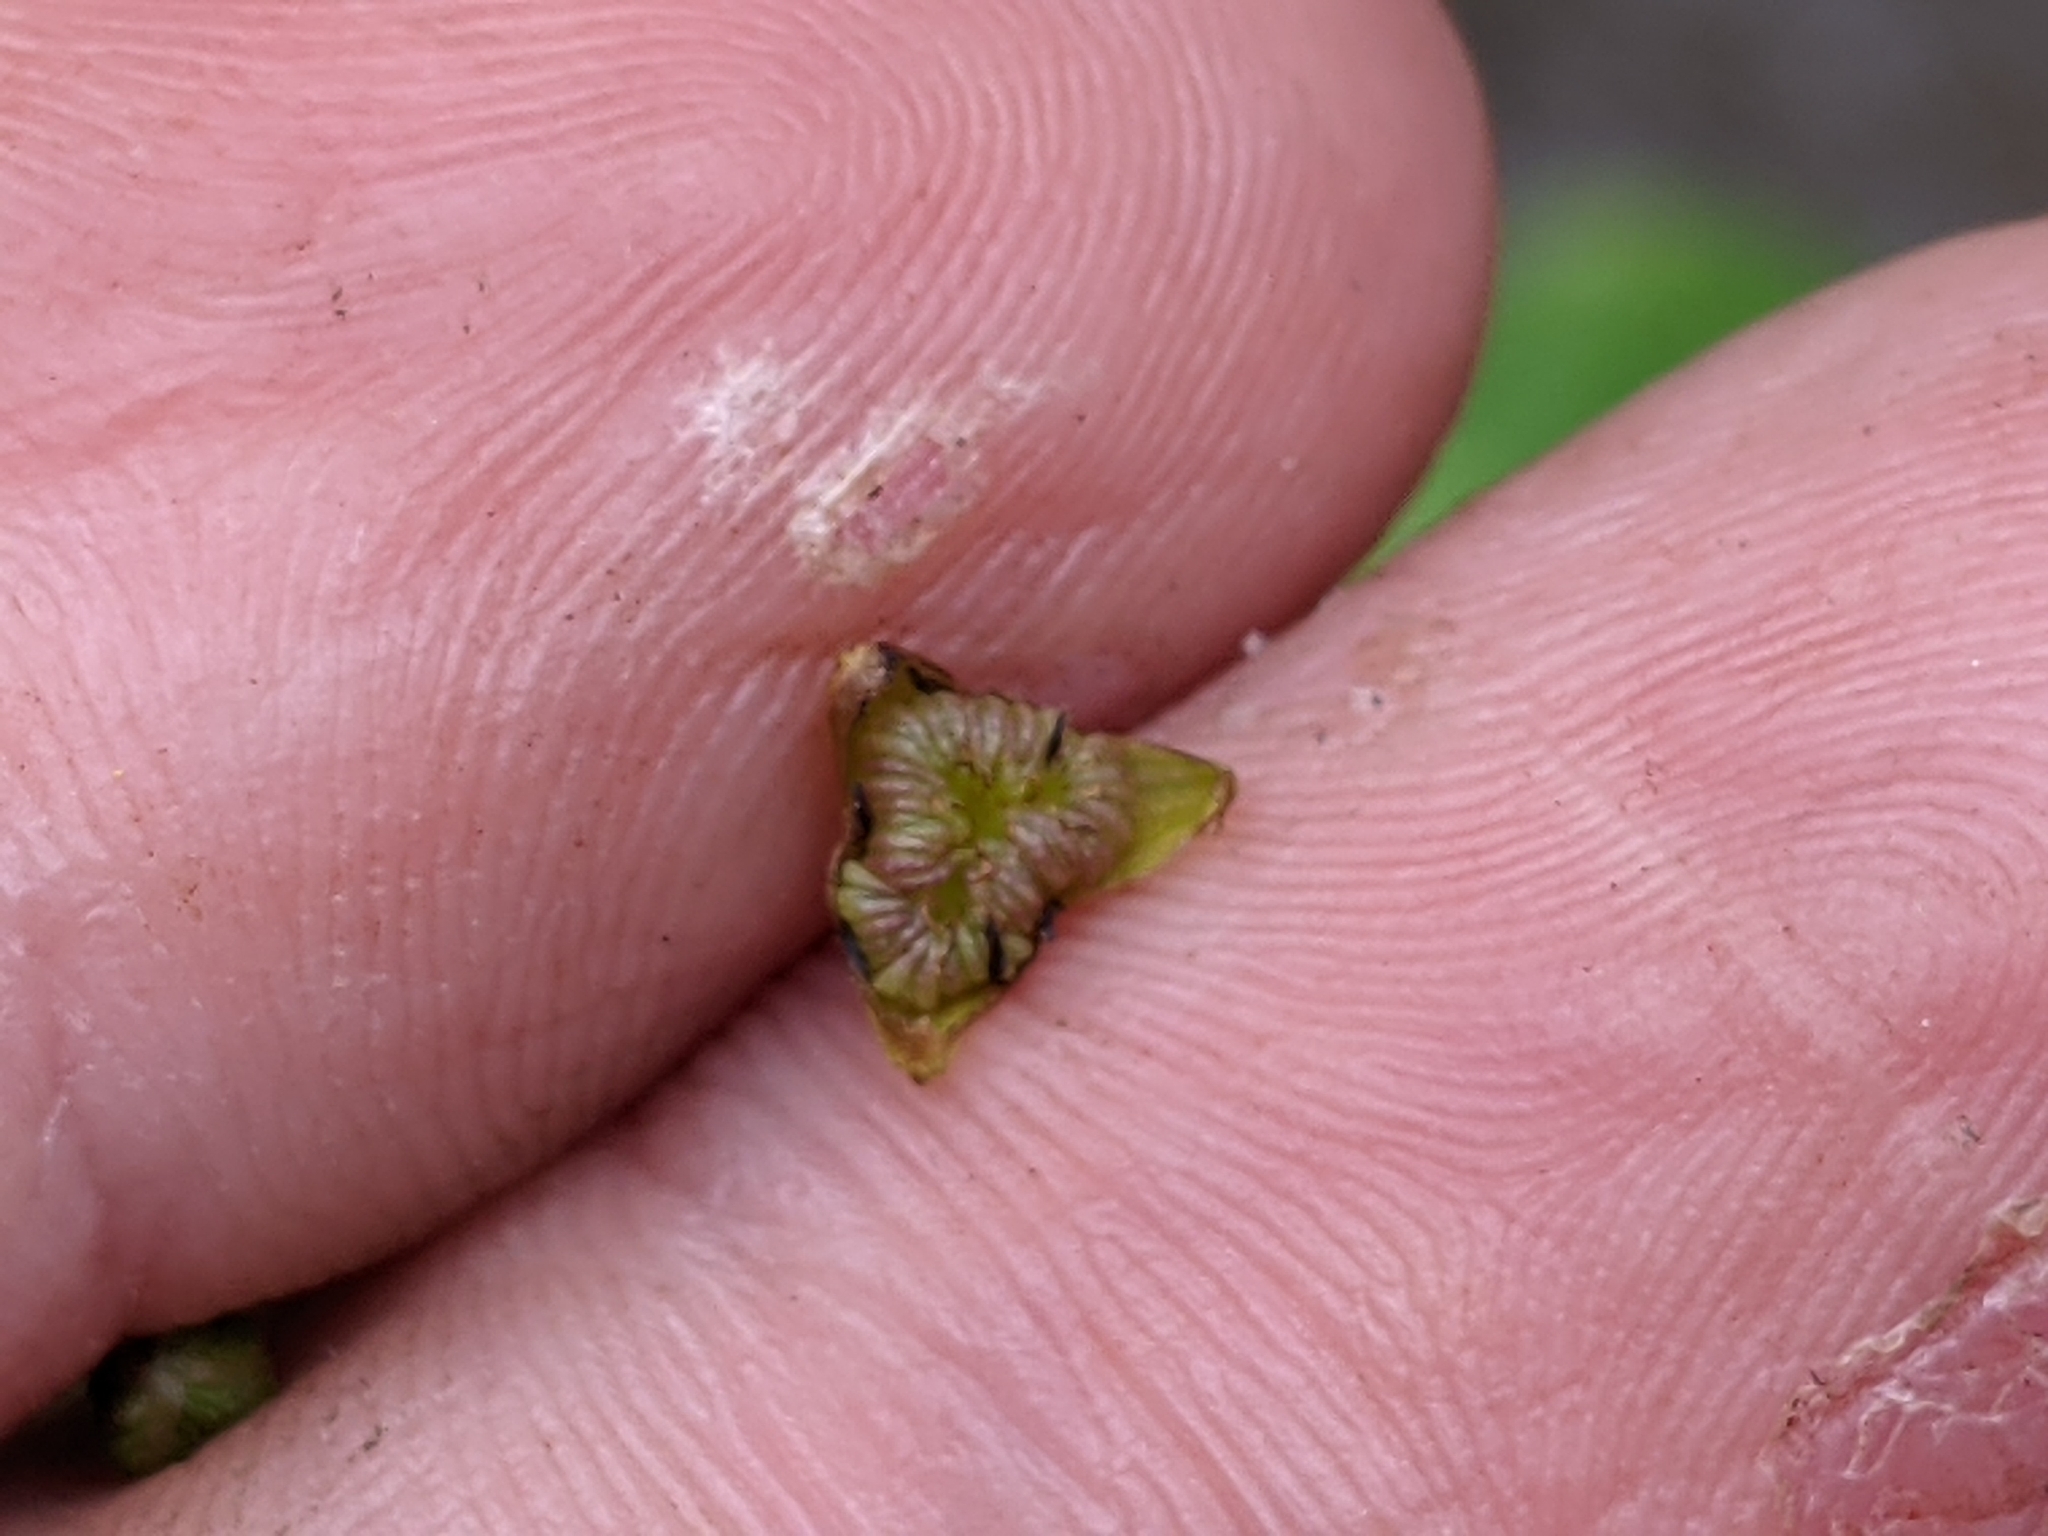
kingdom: Plantae
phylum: Tracheophyta
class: Liliopsida
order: Alismatales
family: Alismataceae
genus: Alisma
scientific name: Alisma plantago-aquatica
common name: Water-plantain
